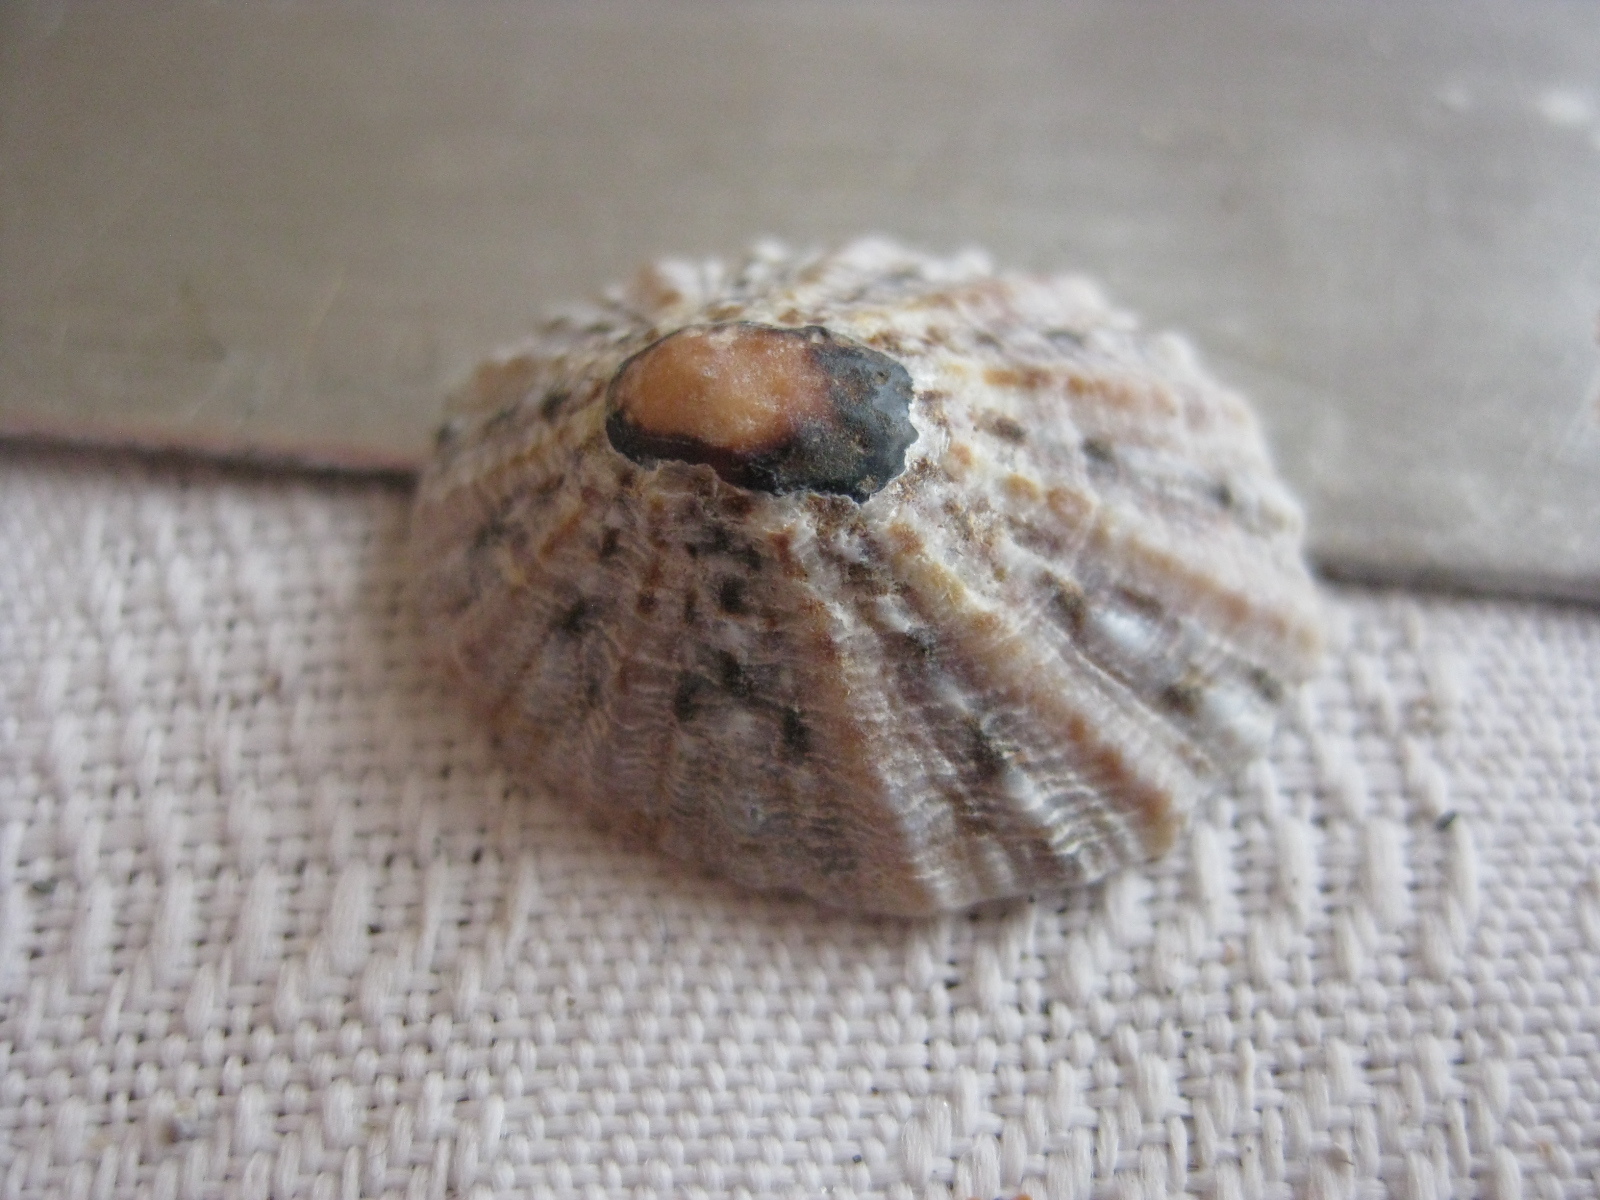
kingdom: Animalia
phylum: Mollusca
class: Gastropoda
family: Nacellidae
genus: Cellana
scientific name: Cellana ornata
